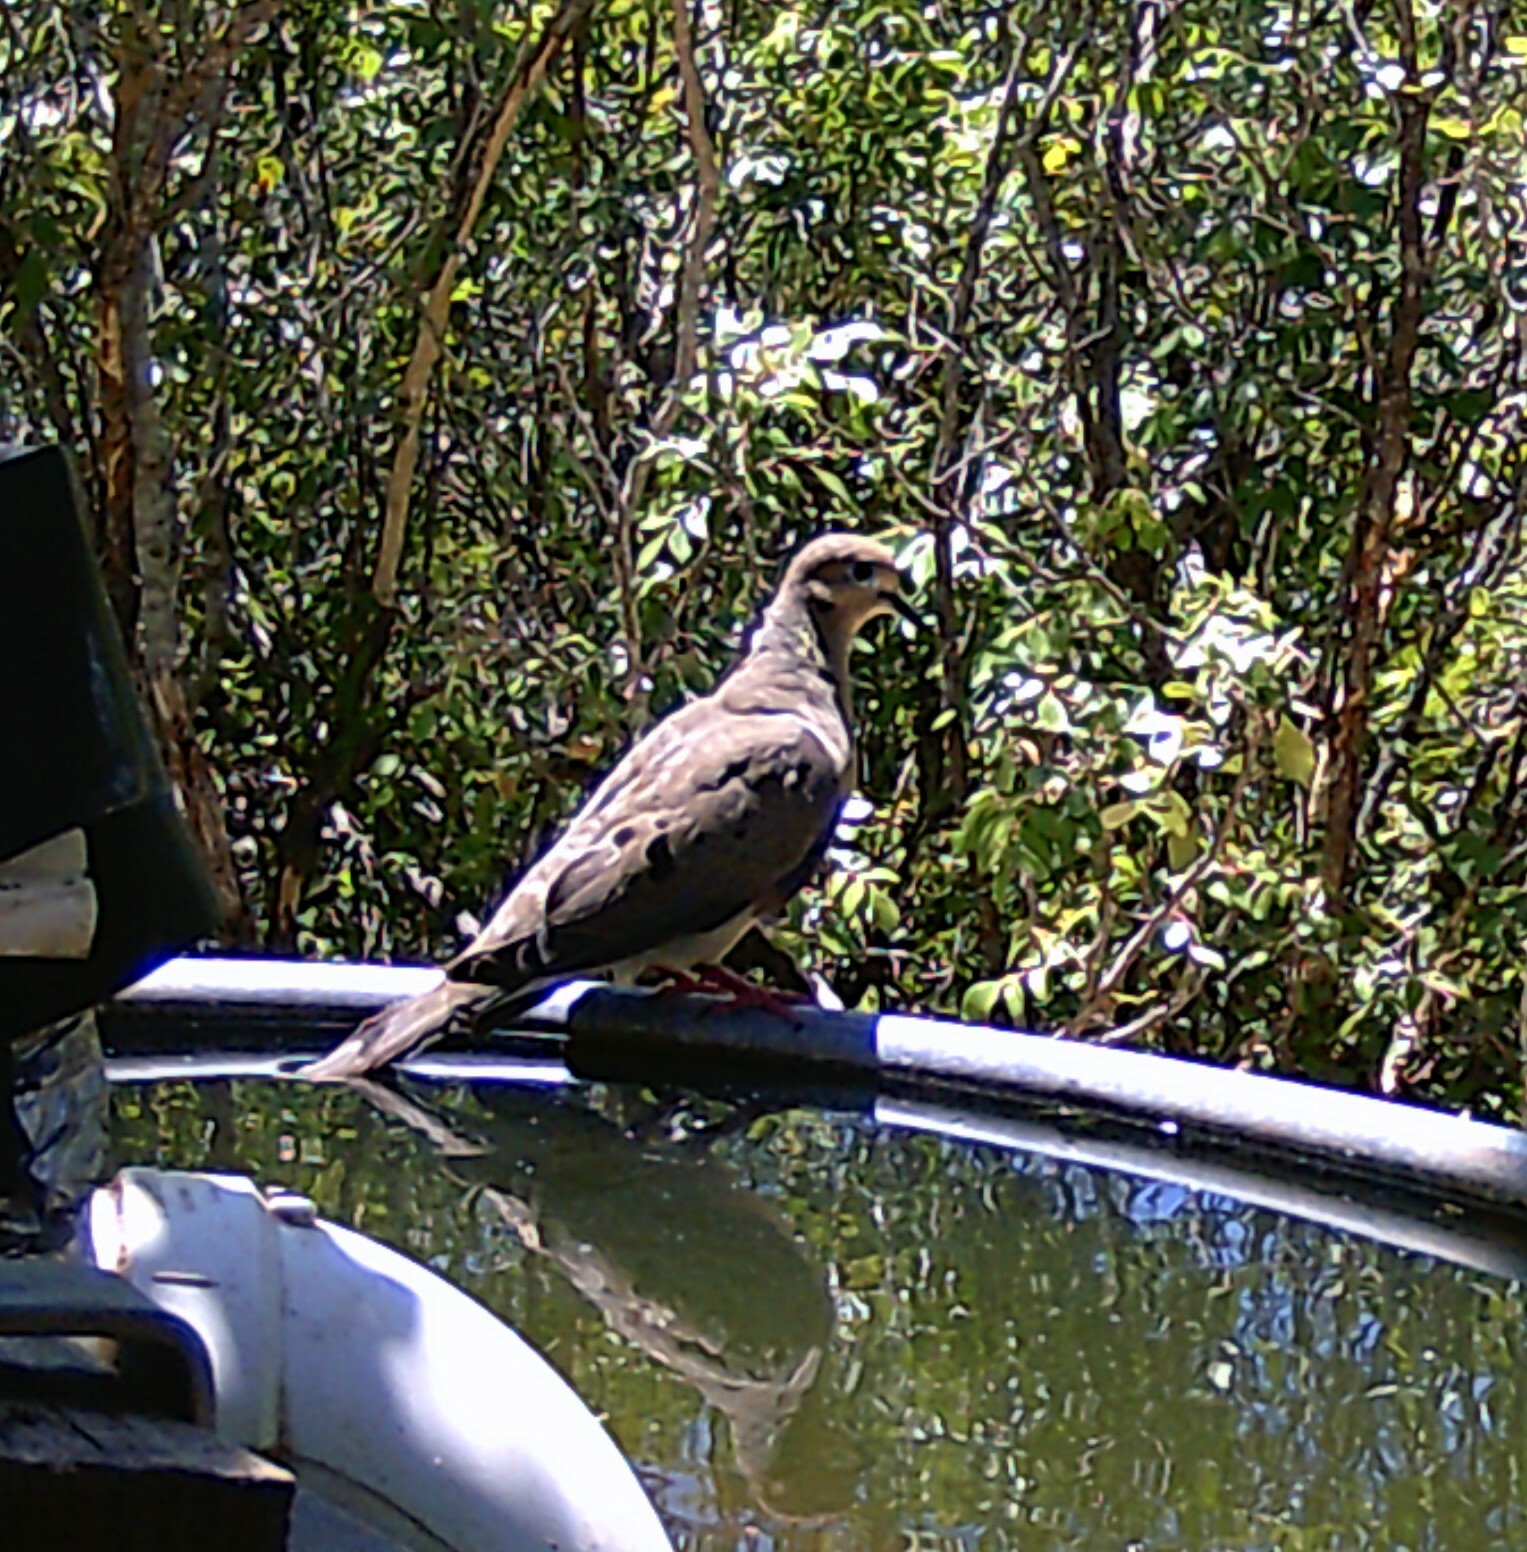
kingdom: Animalia
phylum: Chordata
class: Aves
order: Columbiformes
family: Columbidae
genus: Zenaida
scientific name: Zenaida macroura
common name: Mourning dove
